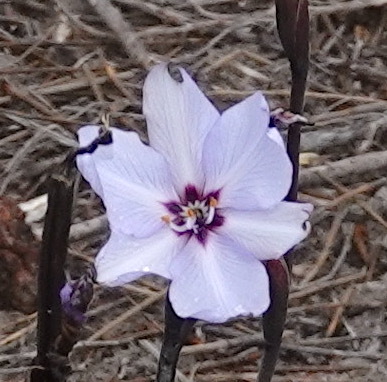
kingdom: Plantae
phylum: Tracheophyta
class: Liliopsida
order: Asparagales
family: Iridaceae
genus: Aristea
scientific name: Aristea spiralis
